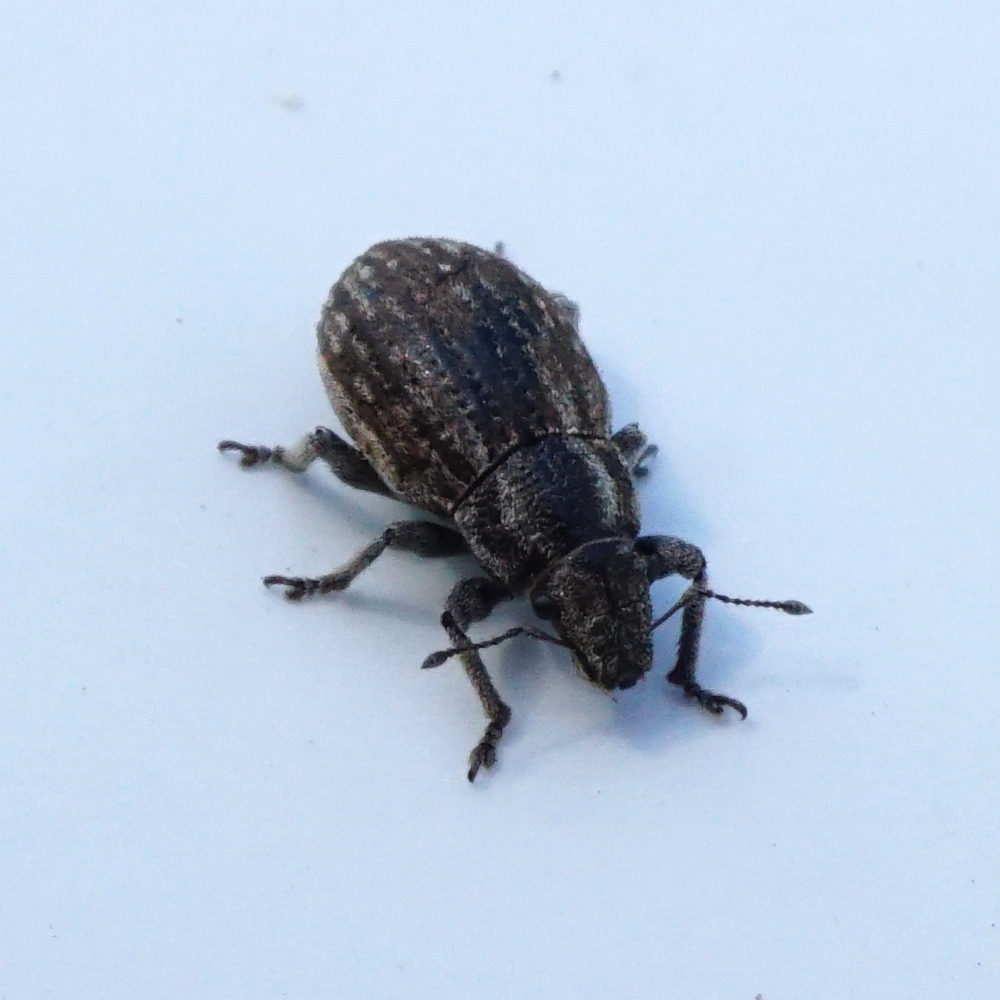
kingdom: Animalia
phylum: Arthropoda
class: Insecta
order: Coleoptera
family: Curculionidae
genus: Strophosoma
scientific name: Strophosoma faber
